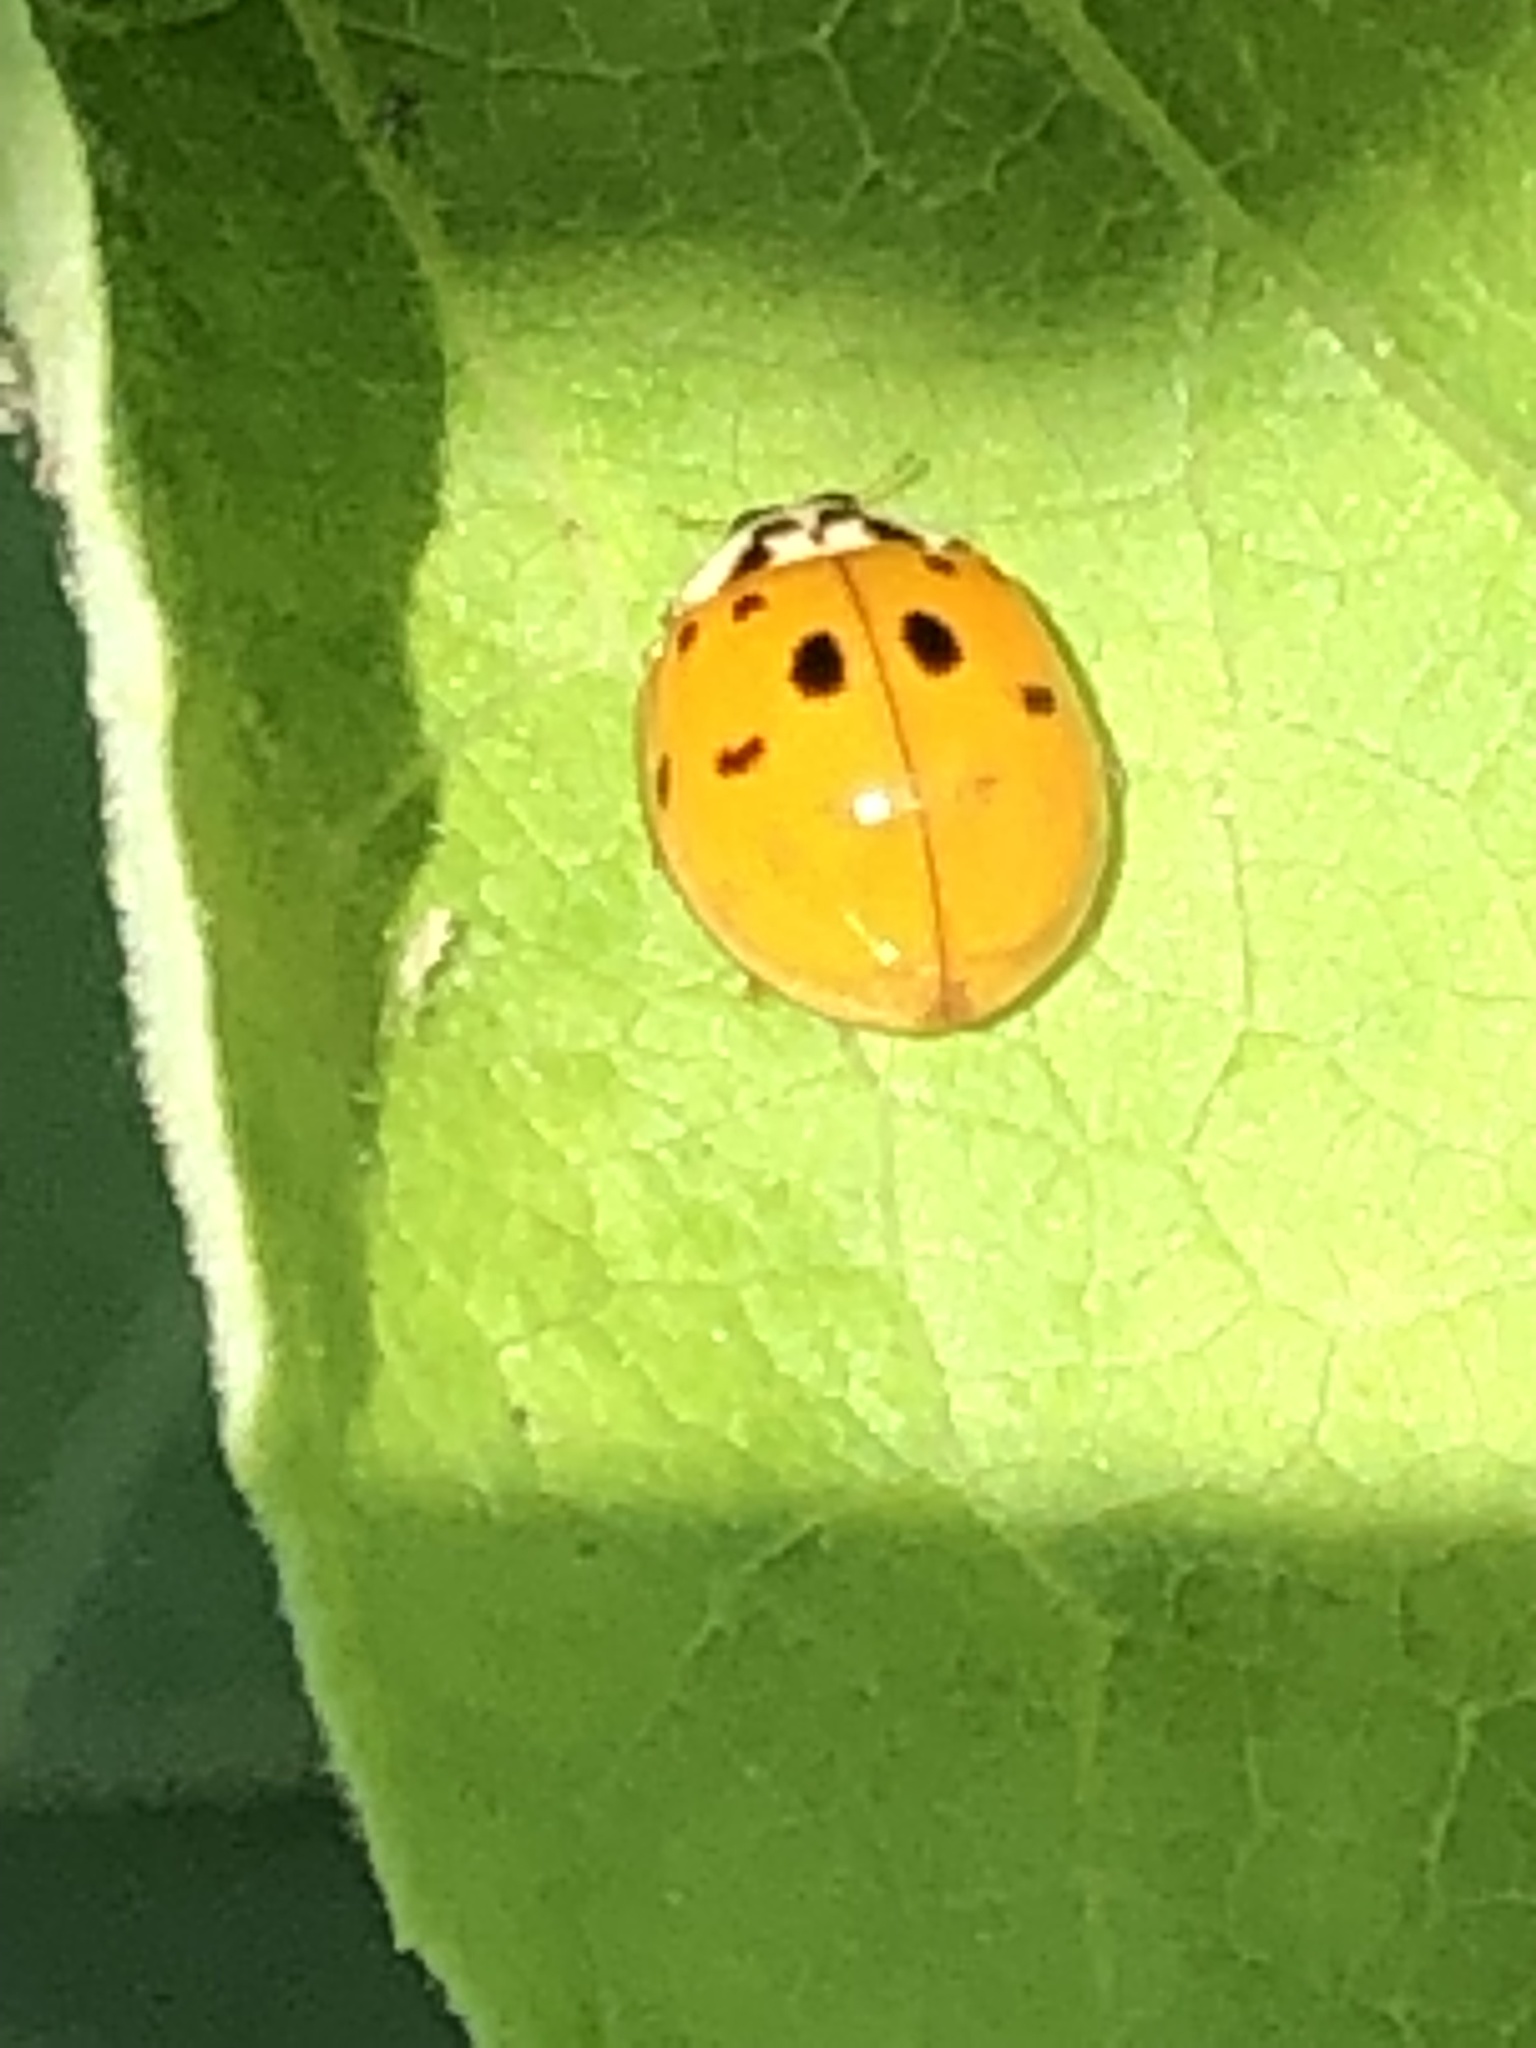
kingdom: Animalia
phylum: Arthropoda
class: Insecta
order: Coleoptera
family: Coccinellidae
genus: Harmonia
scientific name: Harmonia axyridis
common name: Harlequin ladybird
